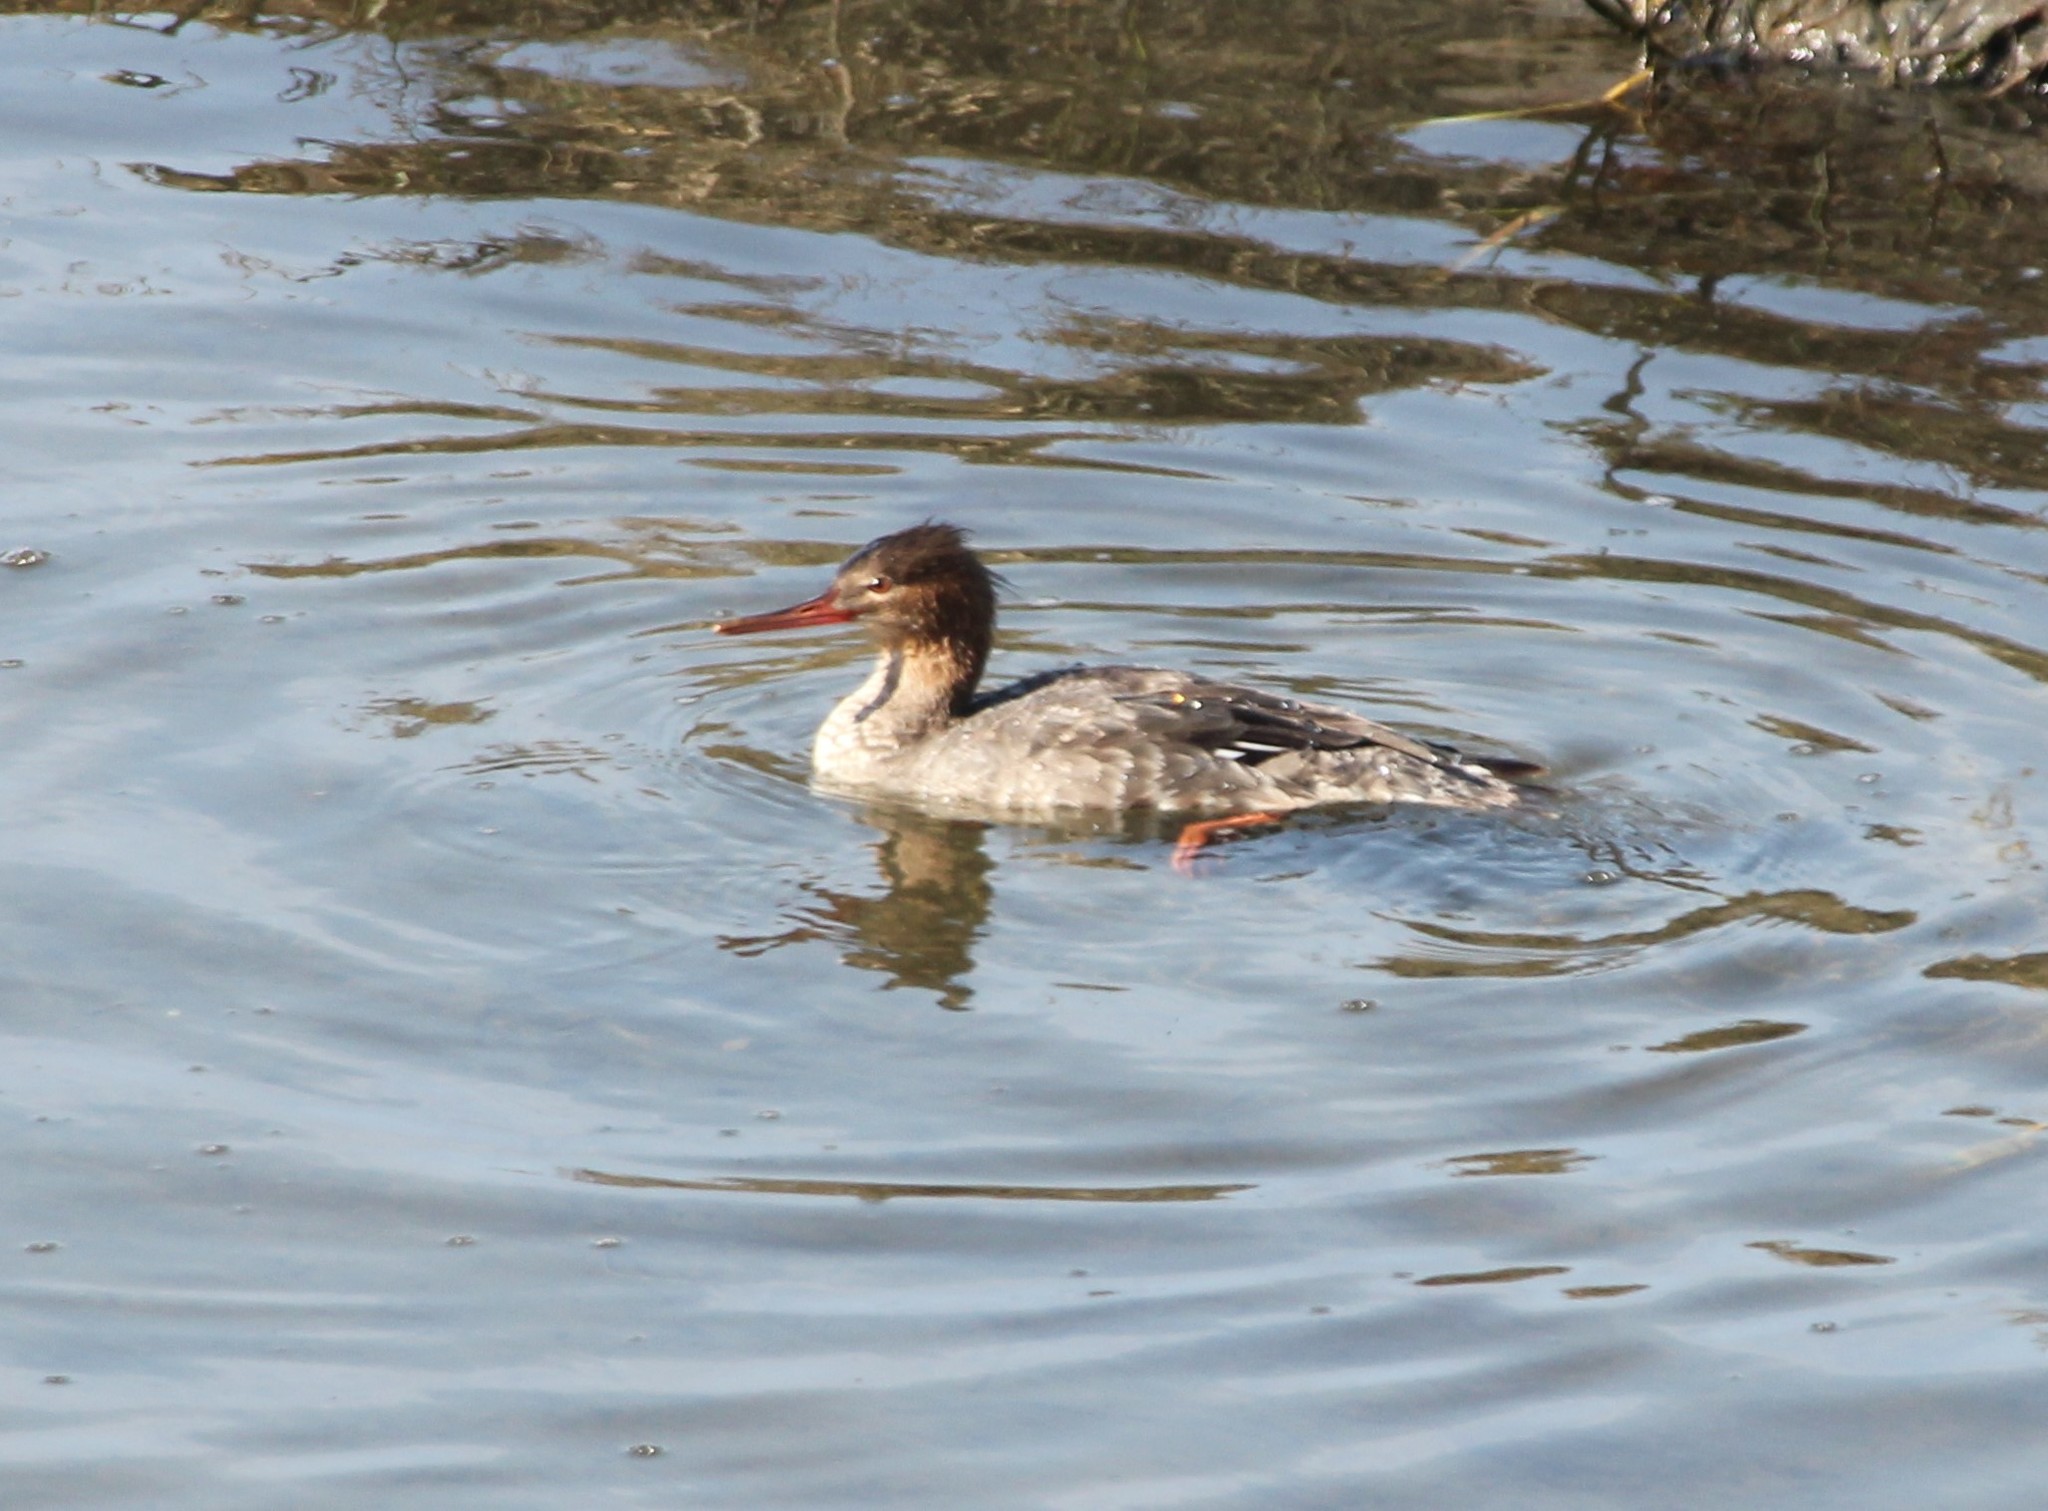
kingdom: Animalia
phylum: Chordata
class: Aves
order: Anseriformes
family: Anatidae
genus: Mergus
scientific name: Mergus serrator
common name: Red-breasted merganser
